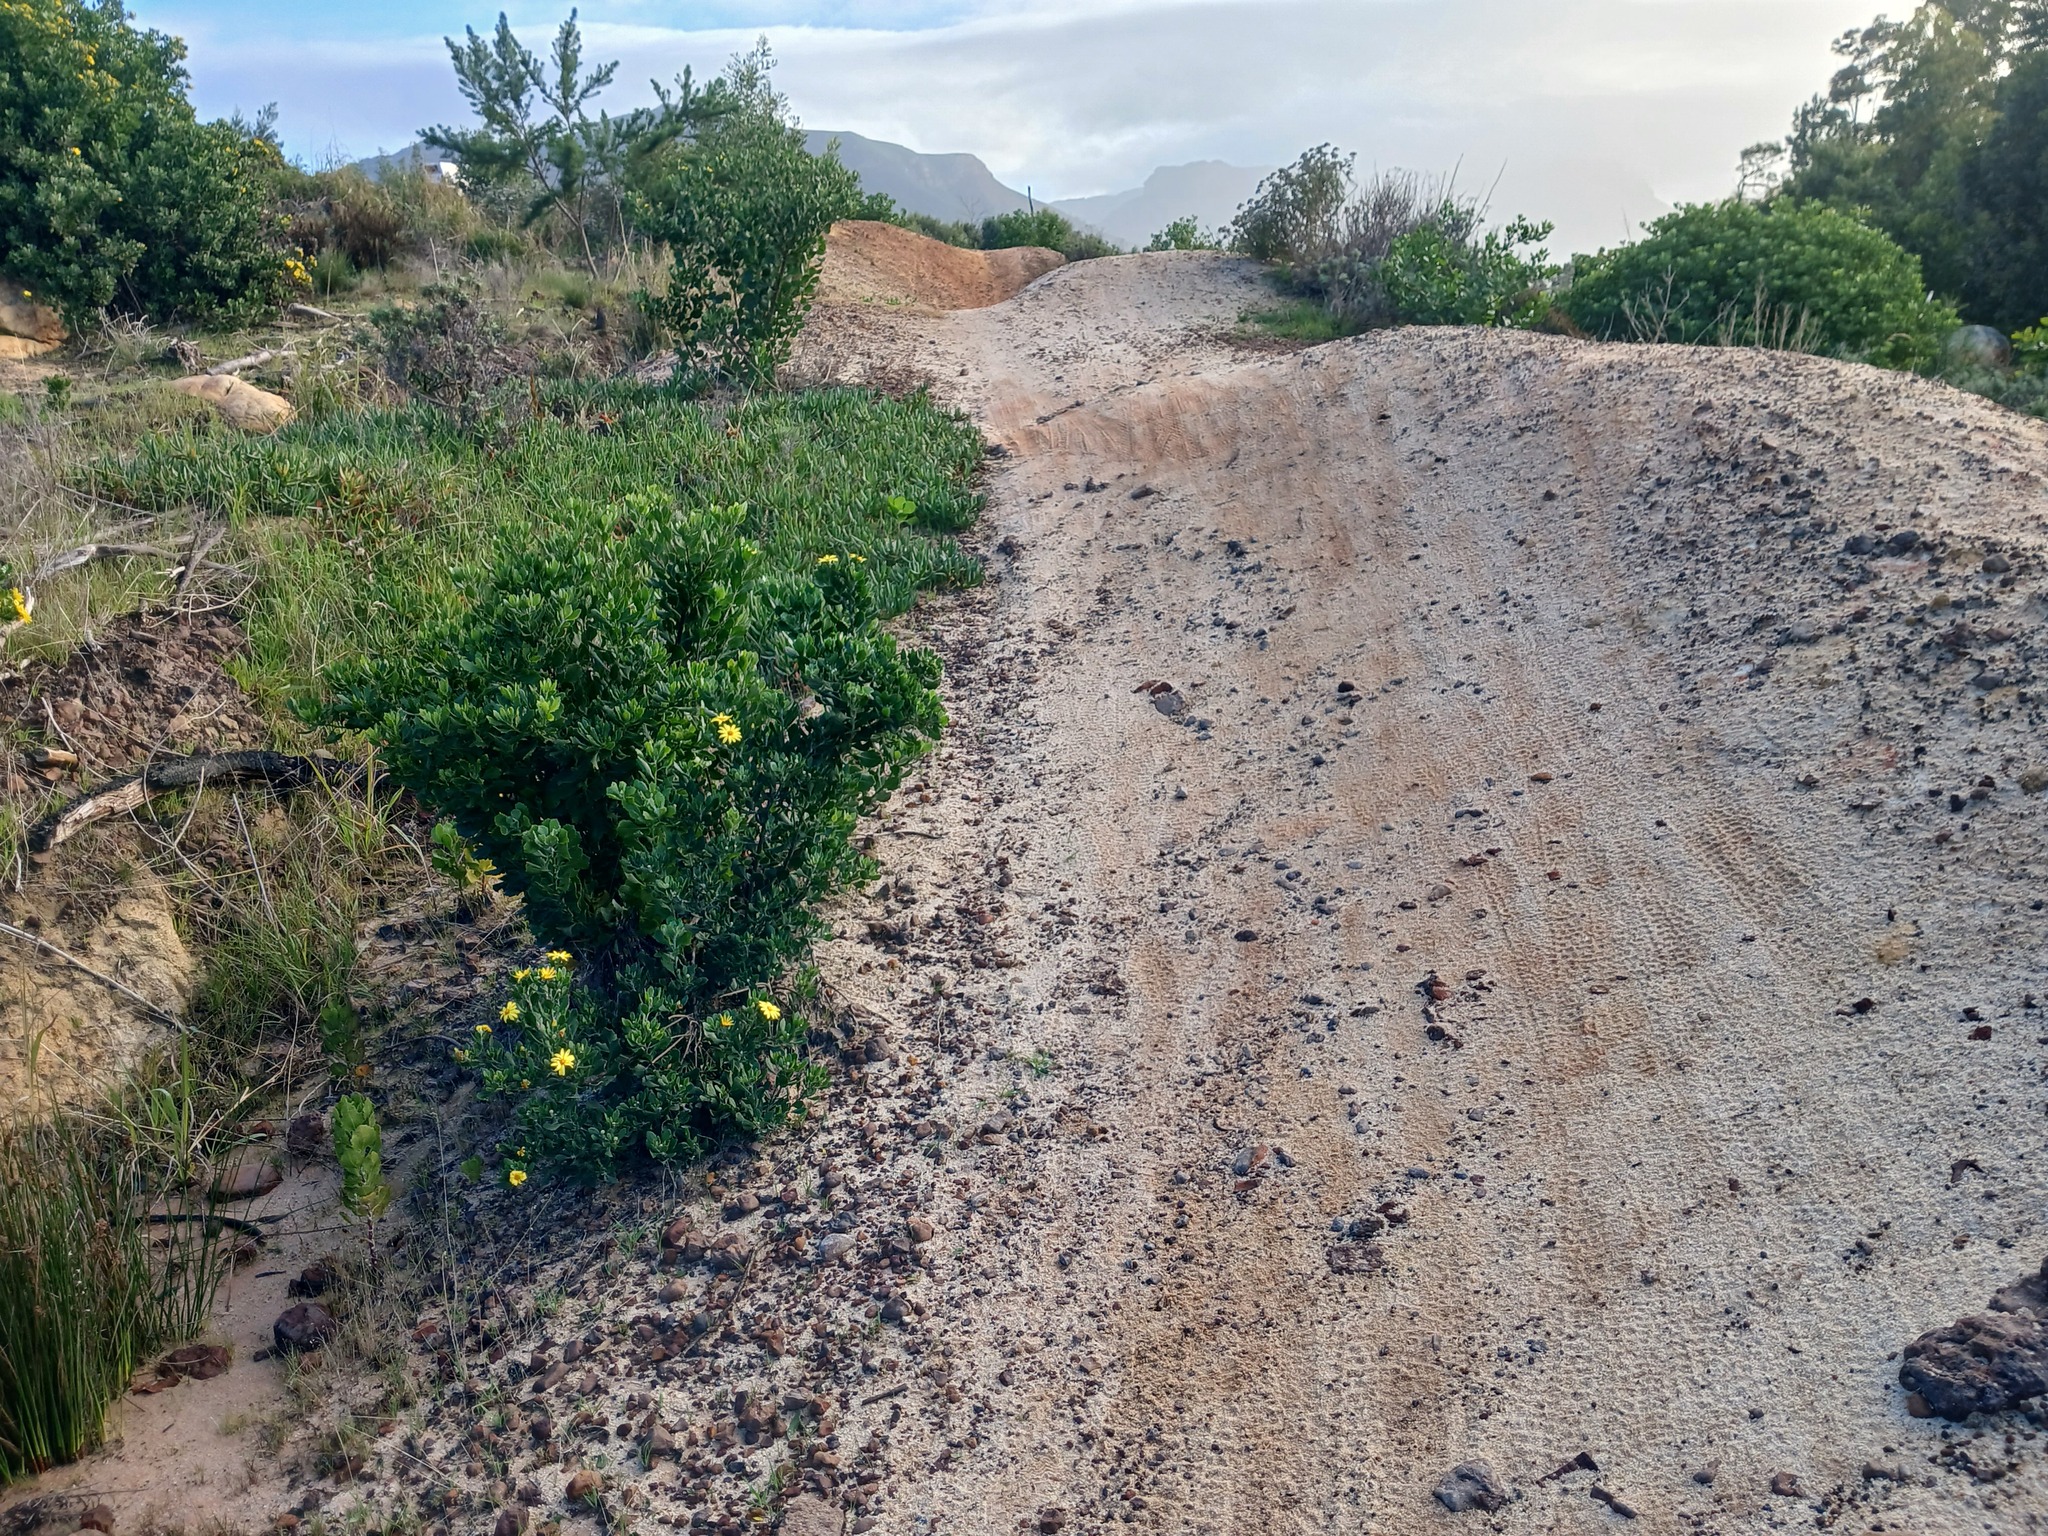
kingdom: Plantae
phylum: Tracheophyta
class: Magnoliopsida
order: Caryophyllales
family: Aizoaceae
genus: Carpobrotus
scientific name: Carpobrotus edulis
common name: Hottentot-fig
